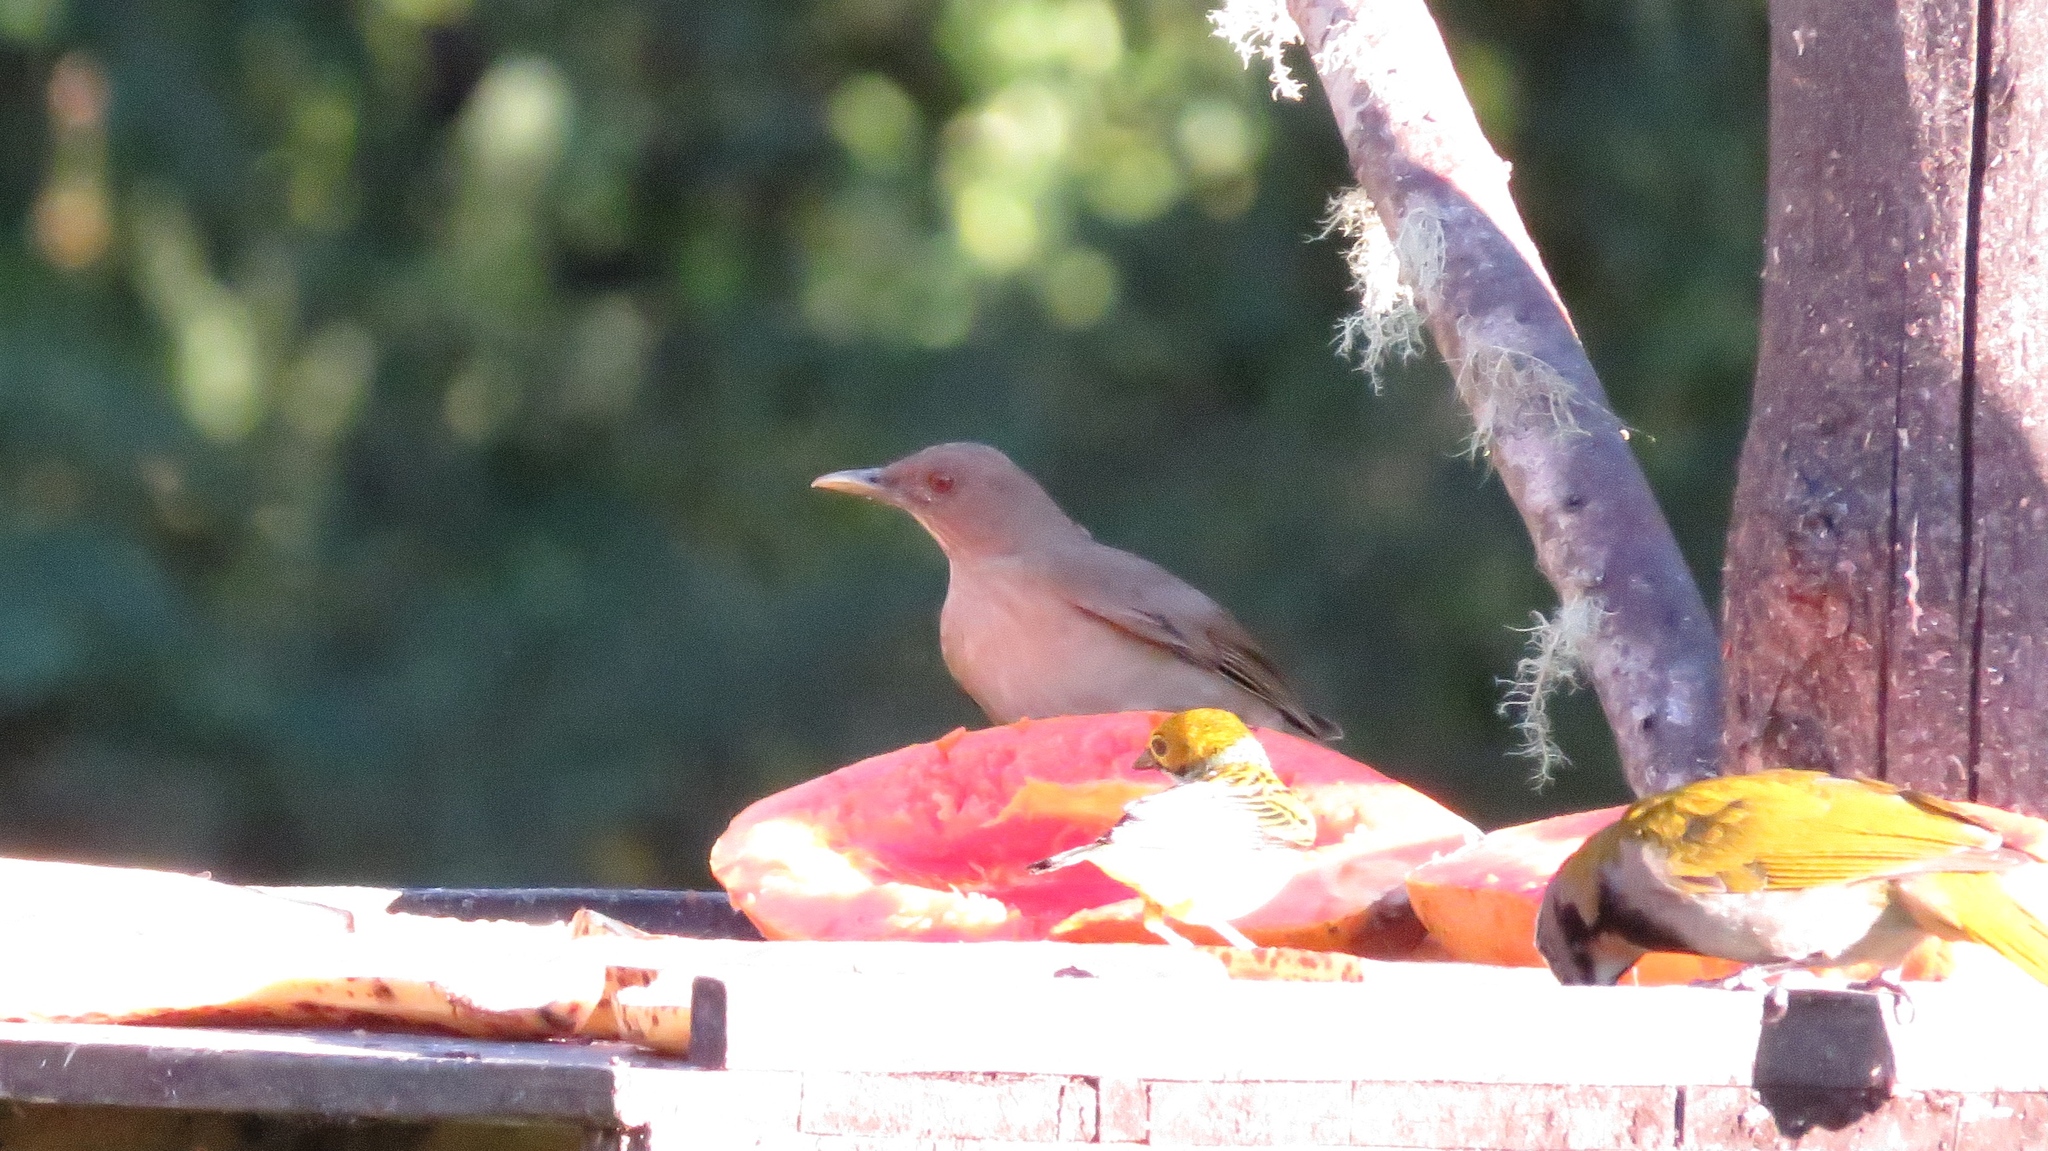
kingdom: Animalia
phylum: Chordata
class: Aves
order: Passeriformes
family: Turdidae
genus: Turdus
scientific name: Turdus grayi
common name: Clay-colored thrush
